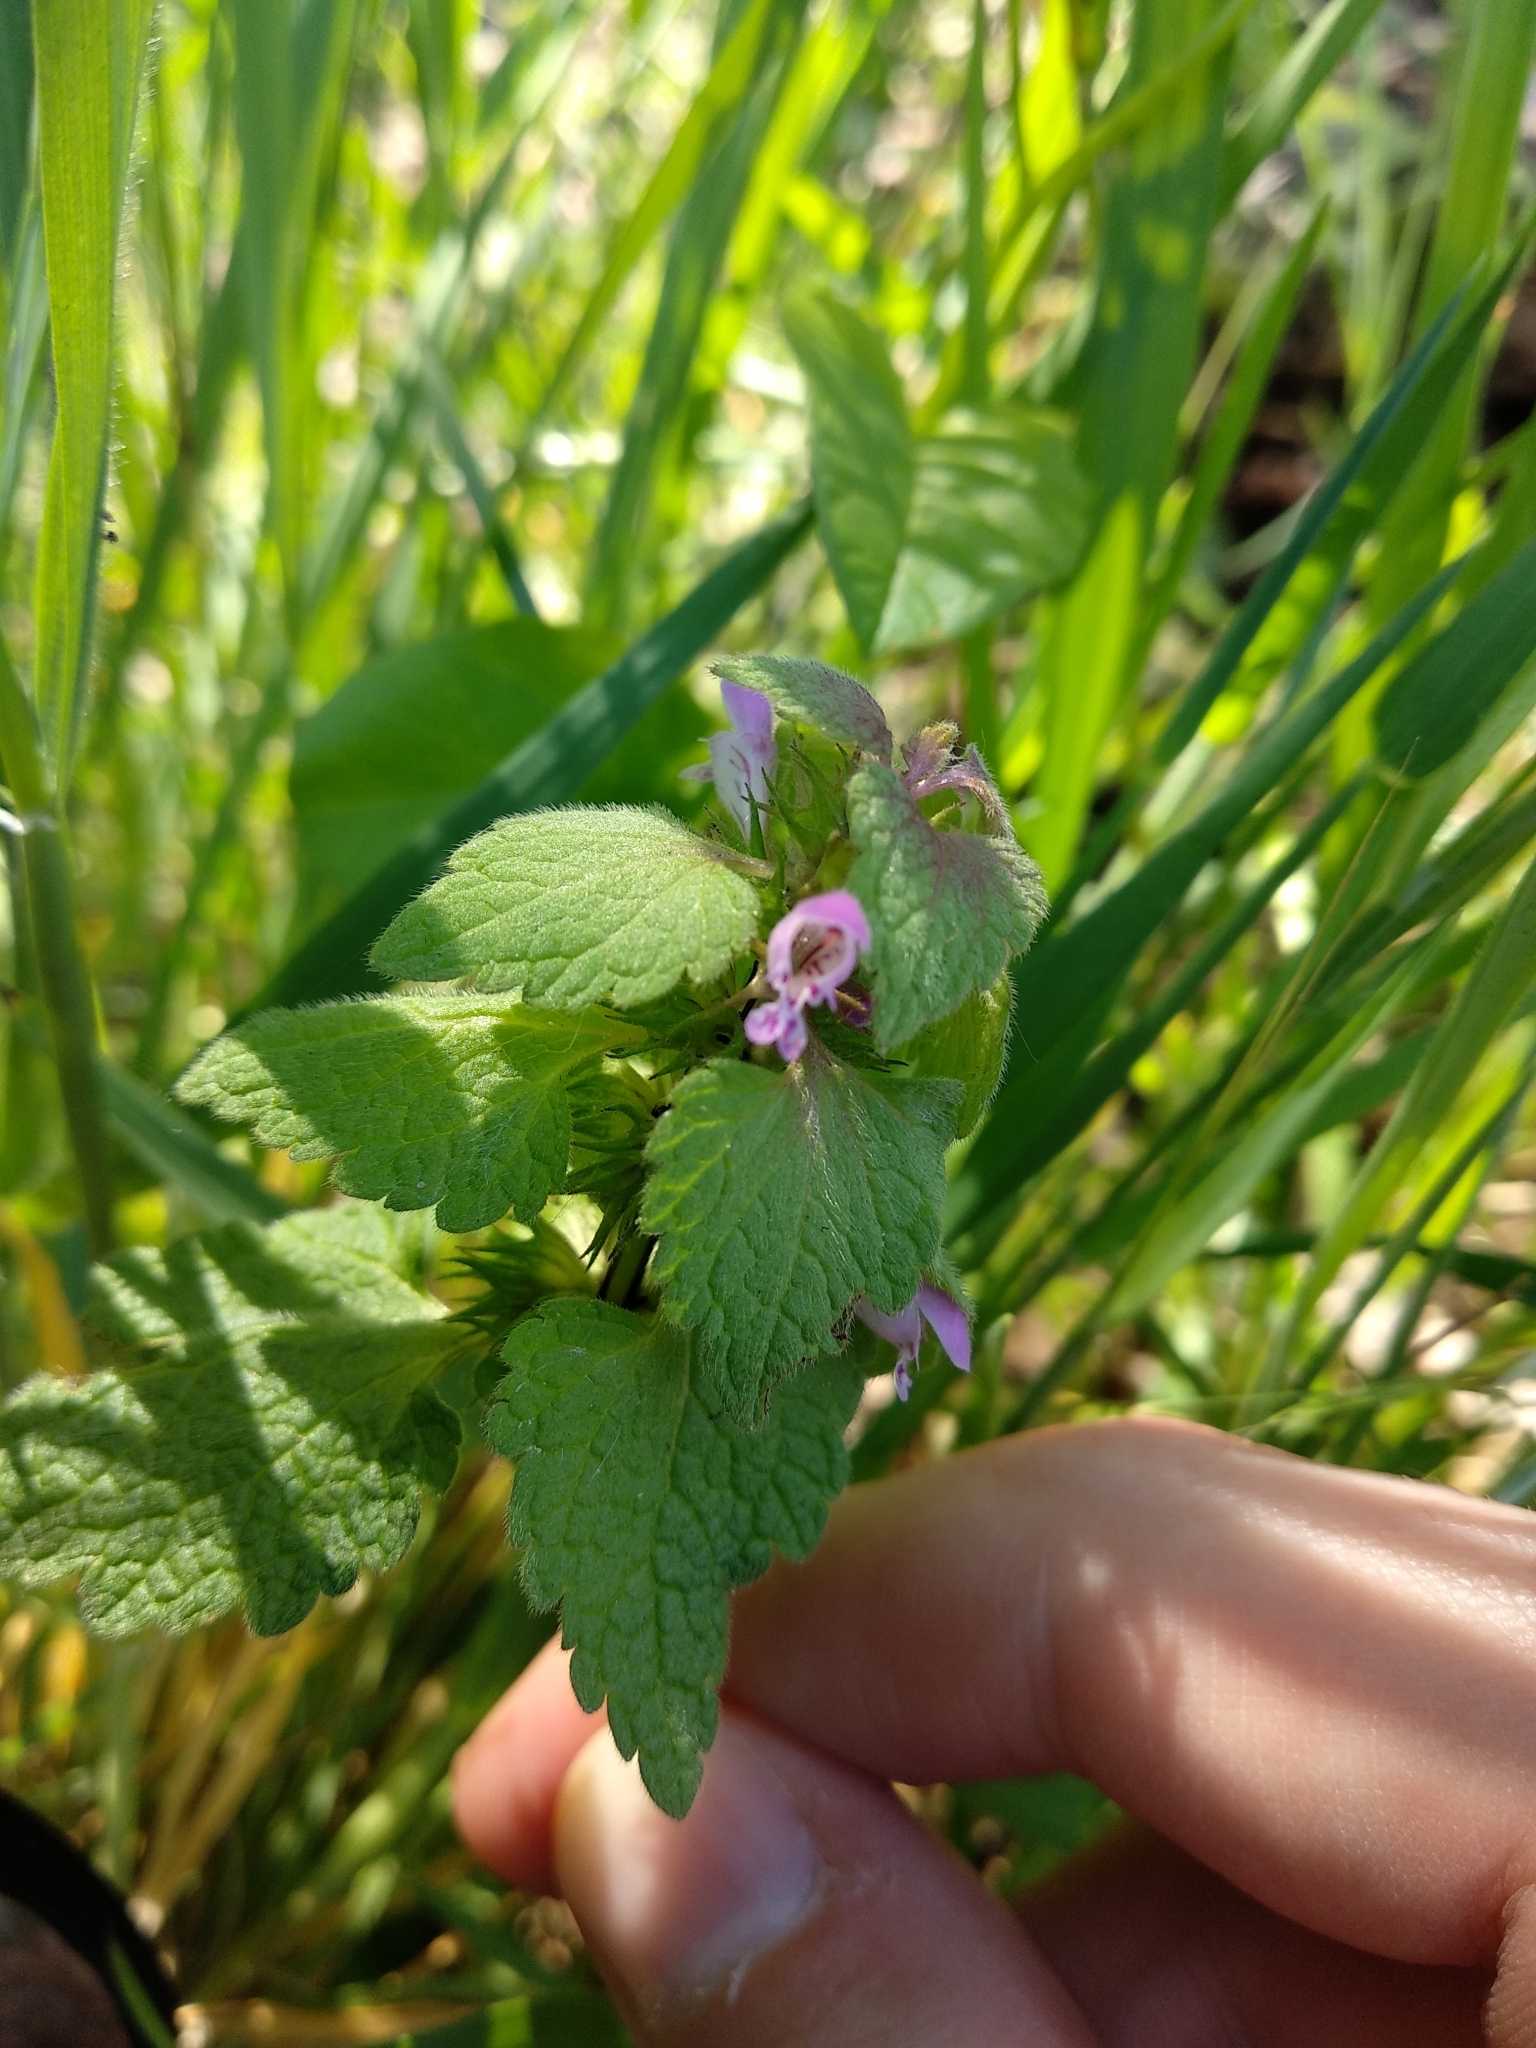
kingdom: Plantae
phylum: Tracheophyta
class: Magnoliopsida
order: Lamiales
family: Lamiaceae
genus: Lamium
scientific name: Lamium purpureum
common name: Red dead-nettle
